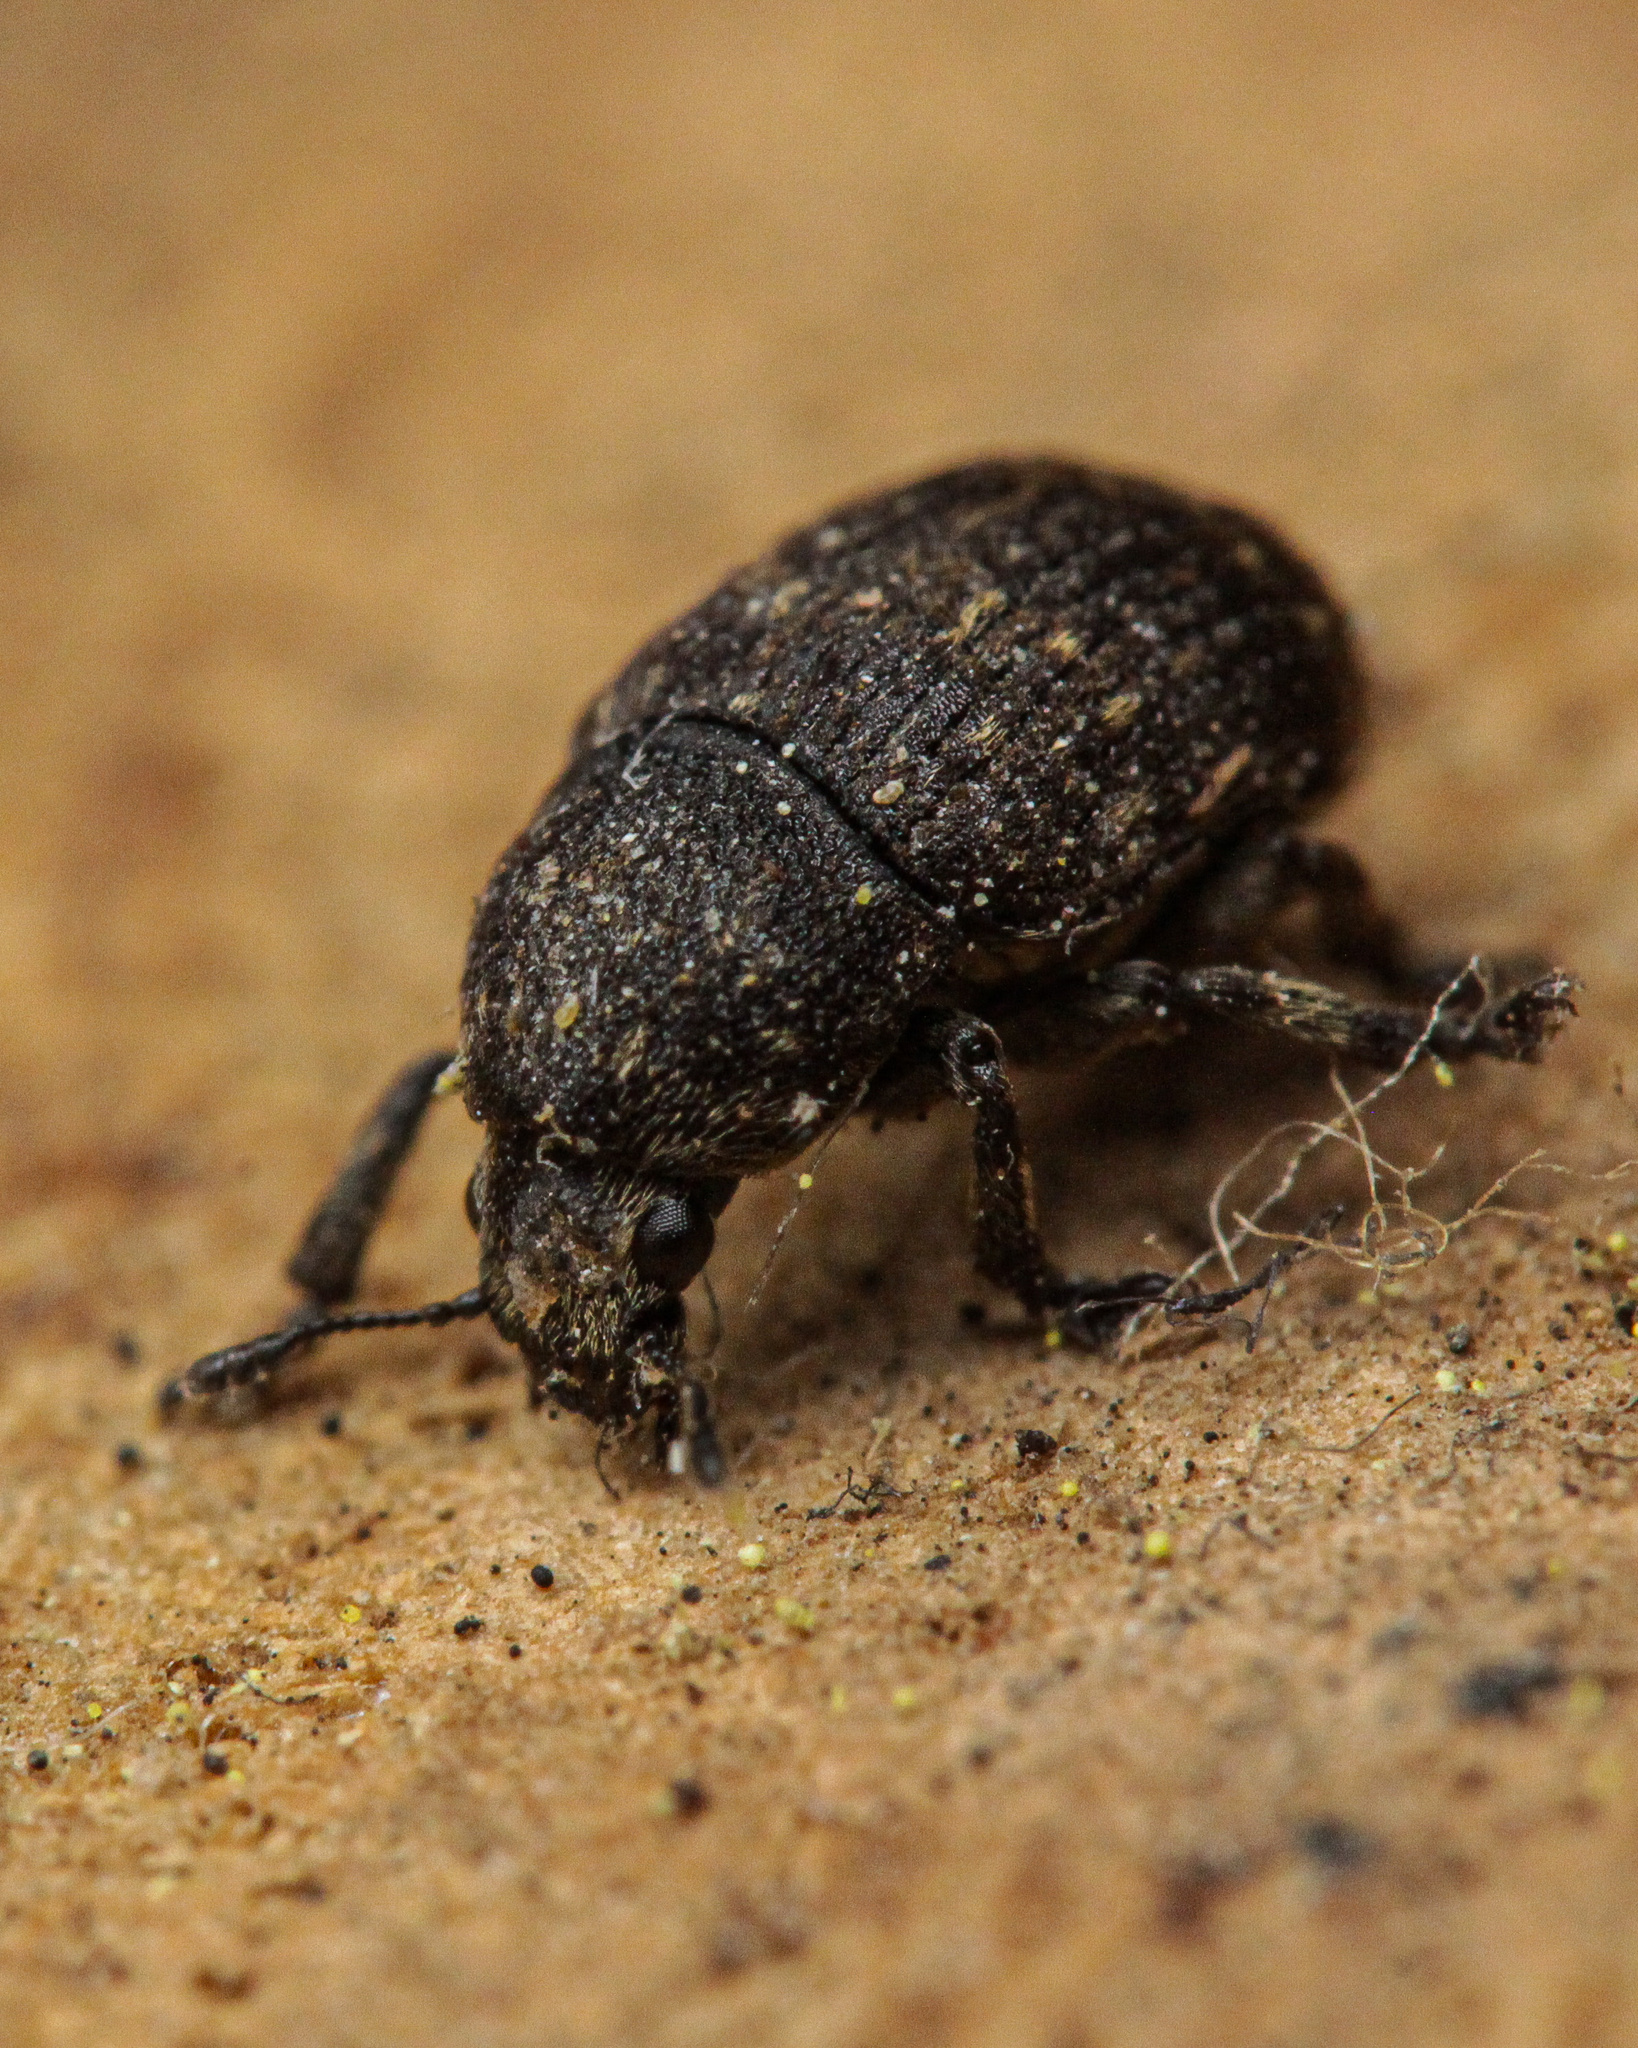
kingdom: Animalia
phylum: Arthropoda
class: Insecta
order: Coleoptera
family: Anthribidae
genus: Anthribus
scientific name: Anthribus nebulosus
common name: Fungus weevil
